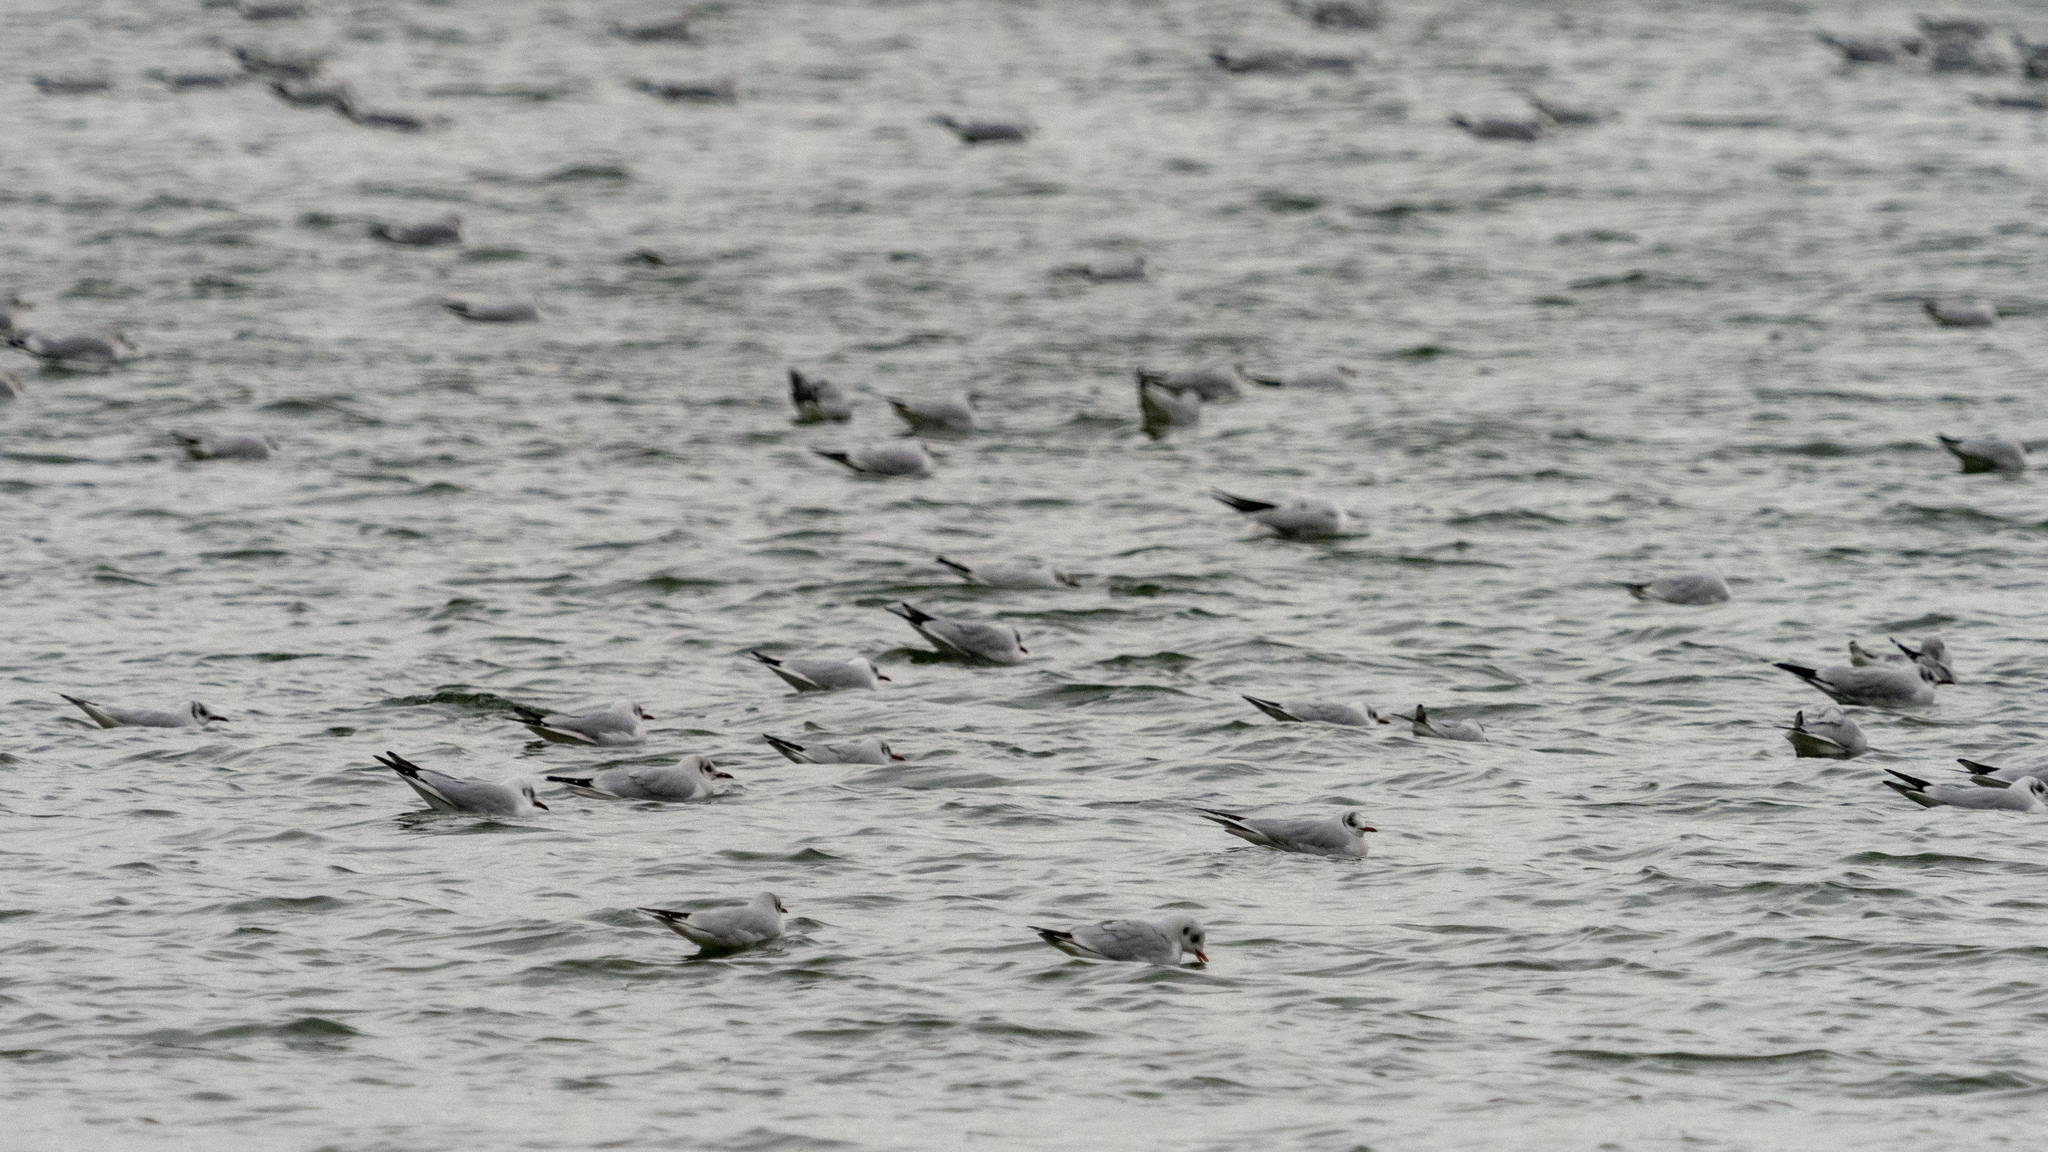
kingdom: Animalia
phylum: Chordata
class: Aves
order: Charadriiformes
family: Laridae
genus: Chroicocephalus
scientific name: Chroicocephalus ridibundus
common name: Black-headed gull
